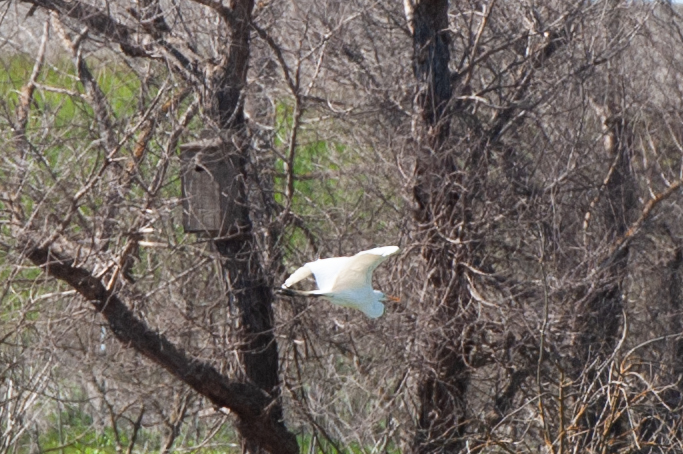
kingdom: Animalia
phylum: Chordata
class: Aves
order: Pelecaniformes
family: Ardeidae
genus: Ardea
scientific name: Ardea alba
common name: Great egret
